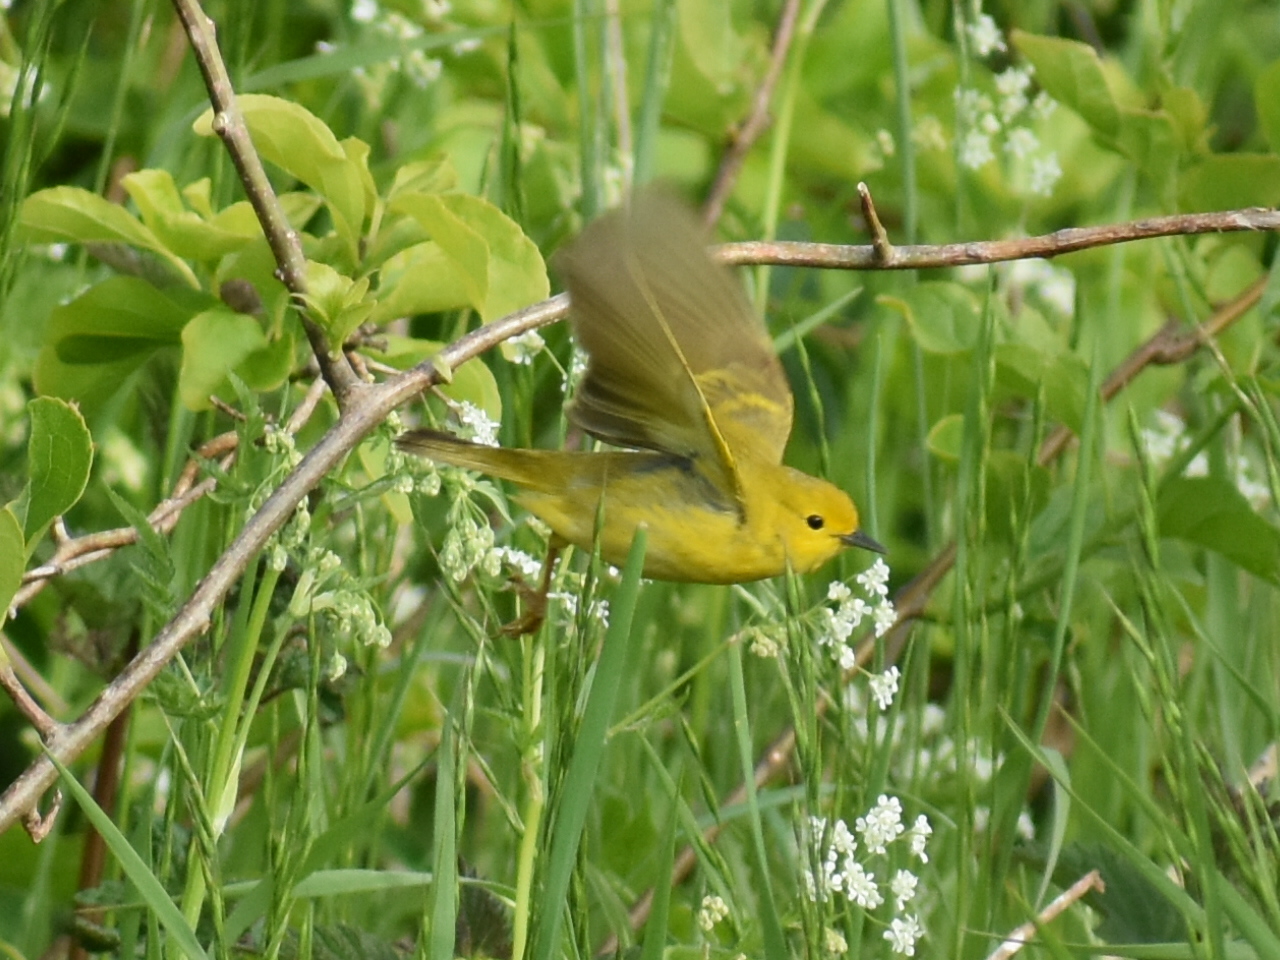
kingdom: Animalia
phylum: Chordata
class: Aves
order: Passeriformes
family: Parulidae
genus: Setophaga
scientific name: Setophaga petechia
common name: Yellow warbler
